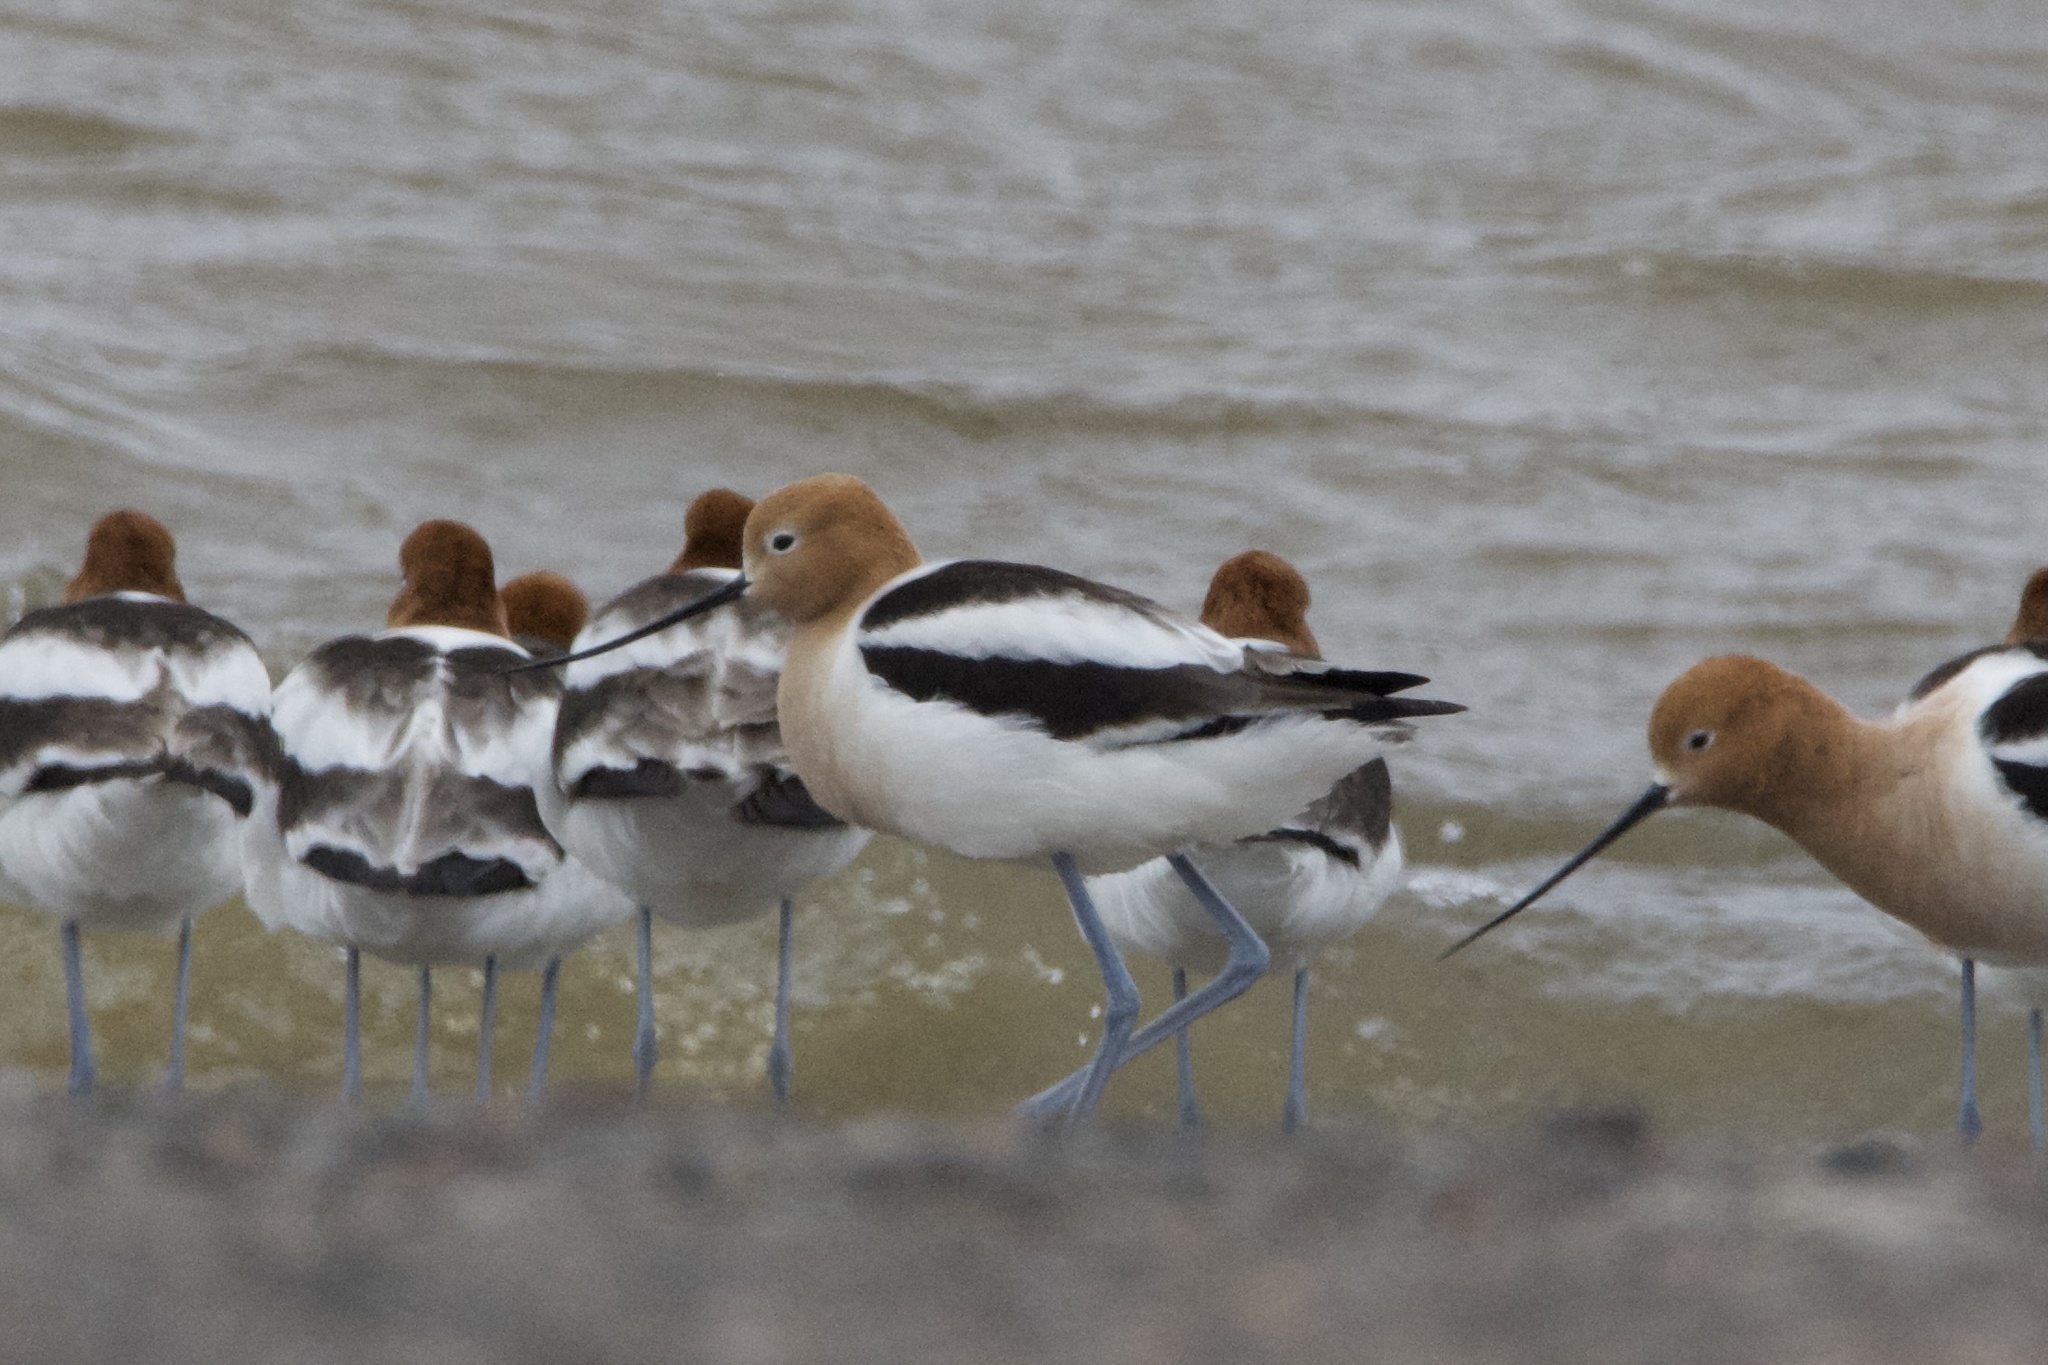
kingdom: Animalia
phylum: Chordata
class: Aves
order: Charadriiformes
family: Recurvirostridae
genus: Recurvirostra
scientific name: Recurvirostra americana
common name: American avocet
